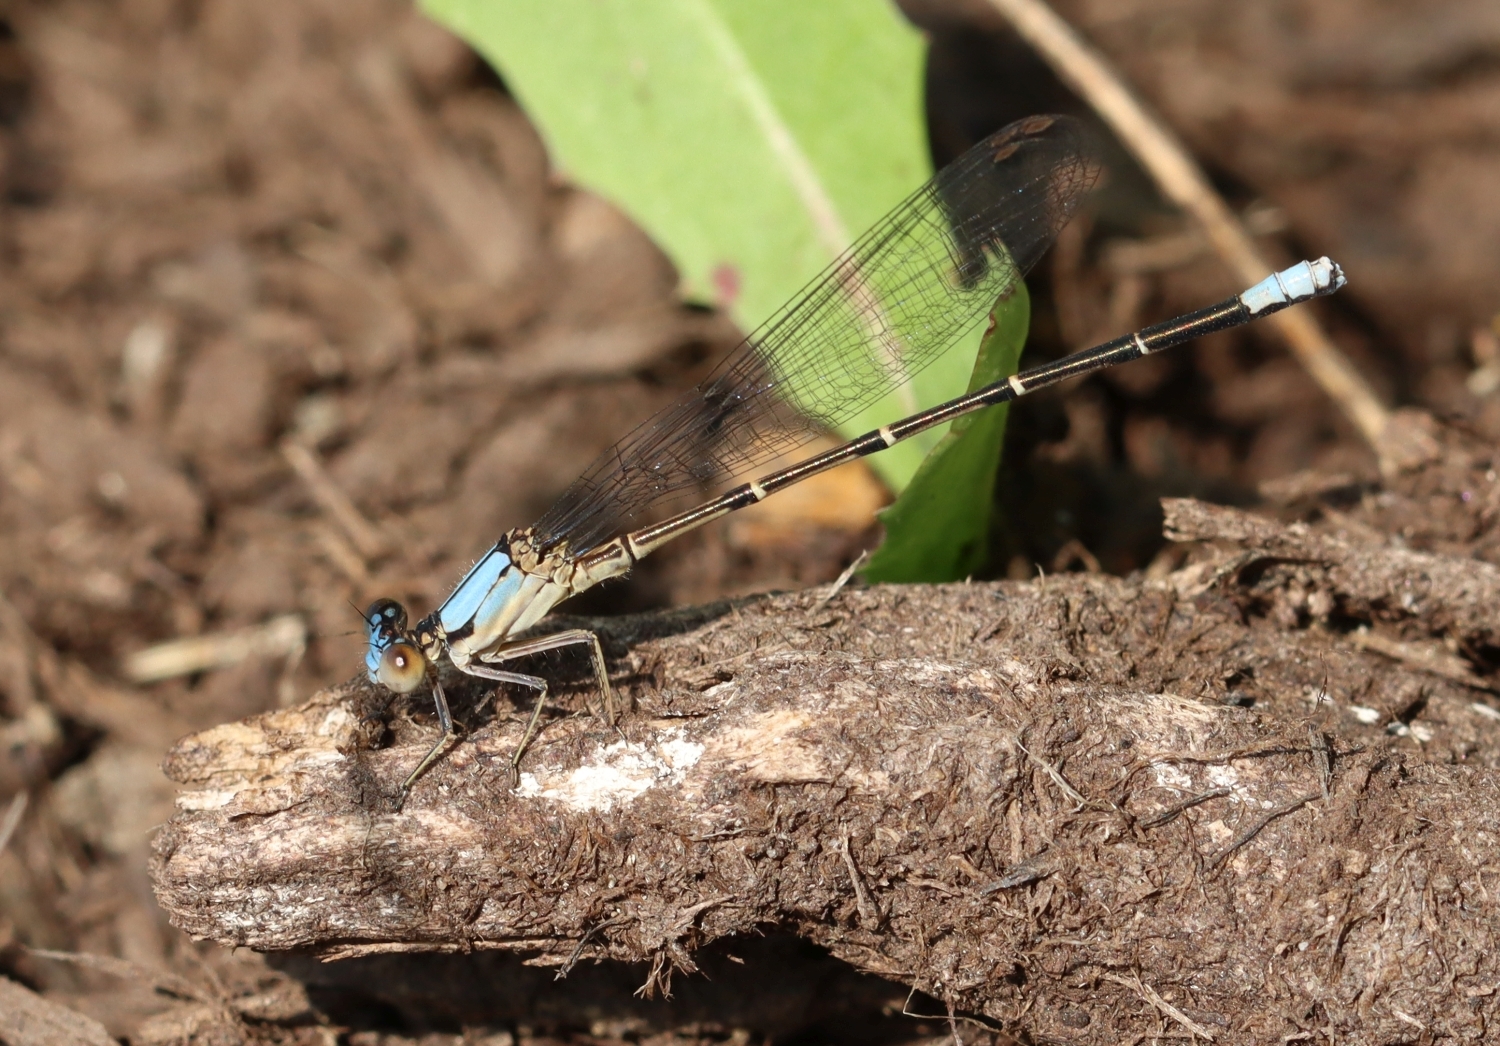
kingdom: Animalia
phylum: Arthropoda
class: Insecta
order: Odonata
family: Coenagrionidae
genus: Argia
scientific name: Argia apicalis
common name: Blue-fronted dancer
